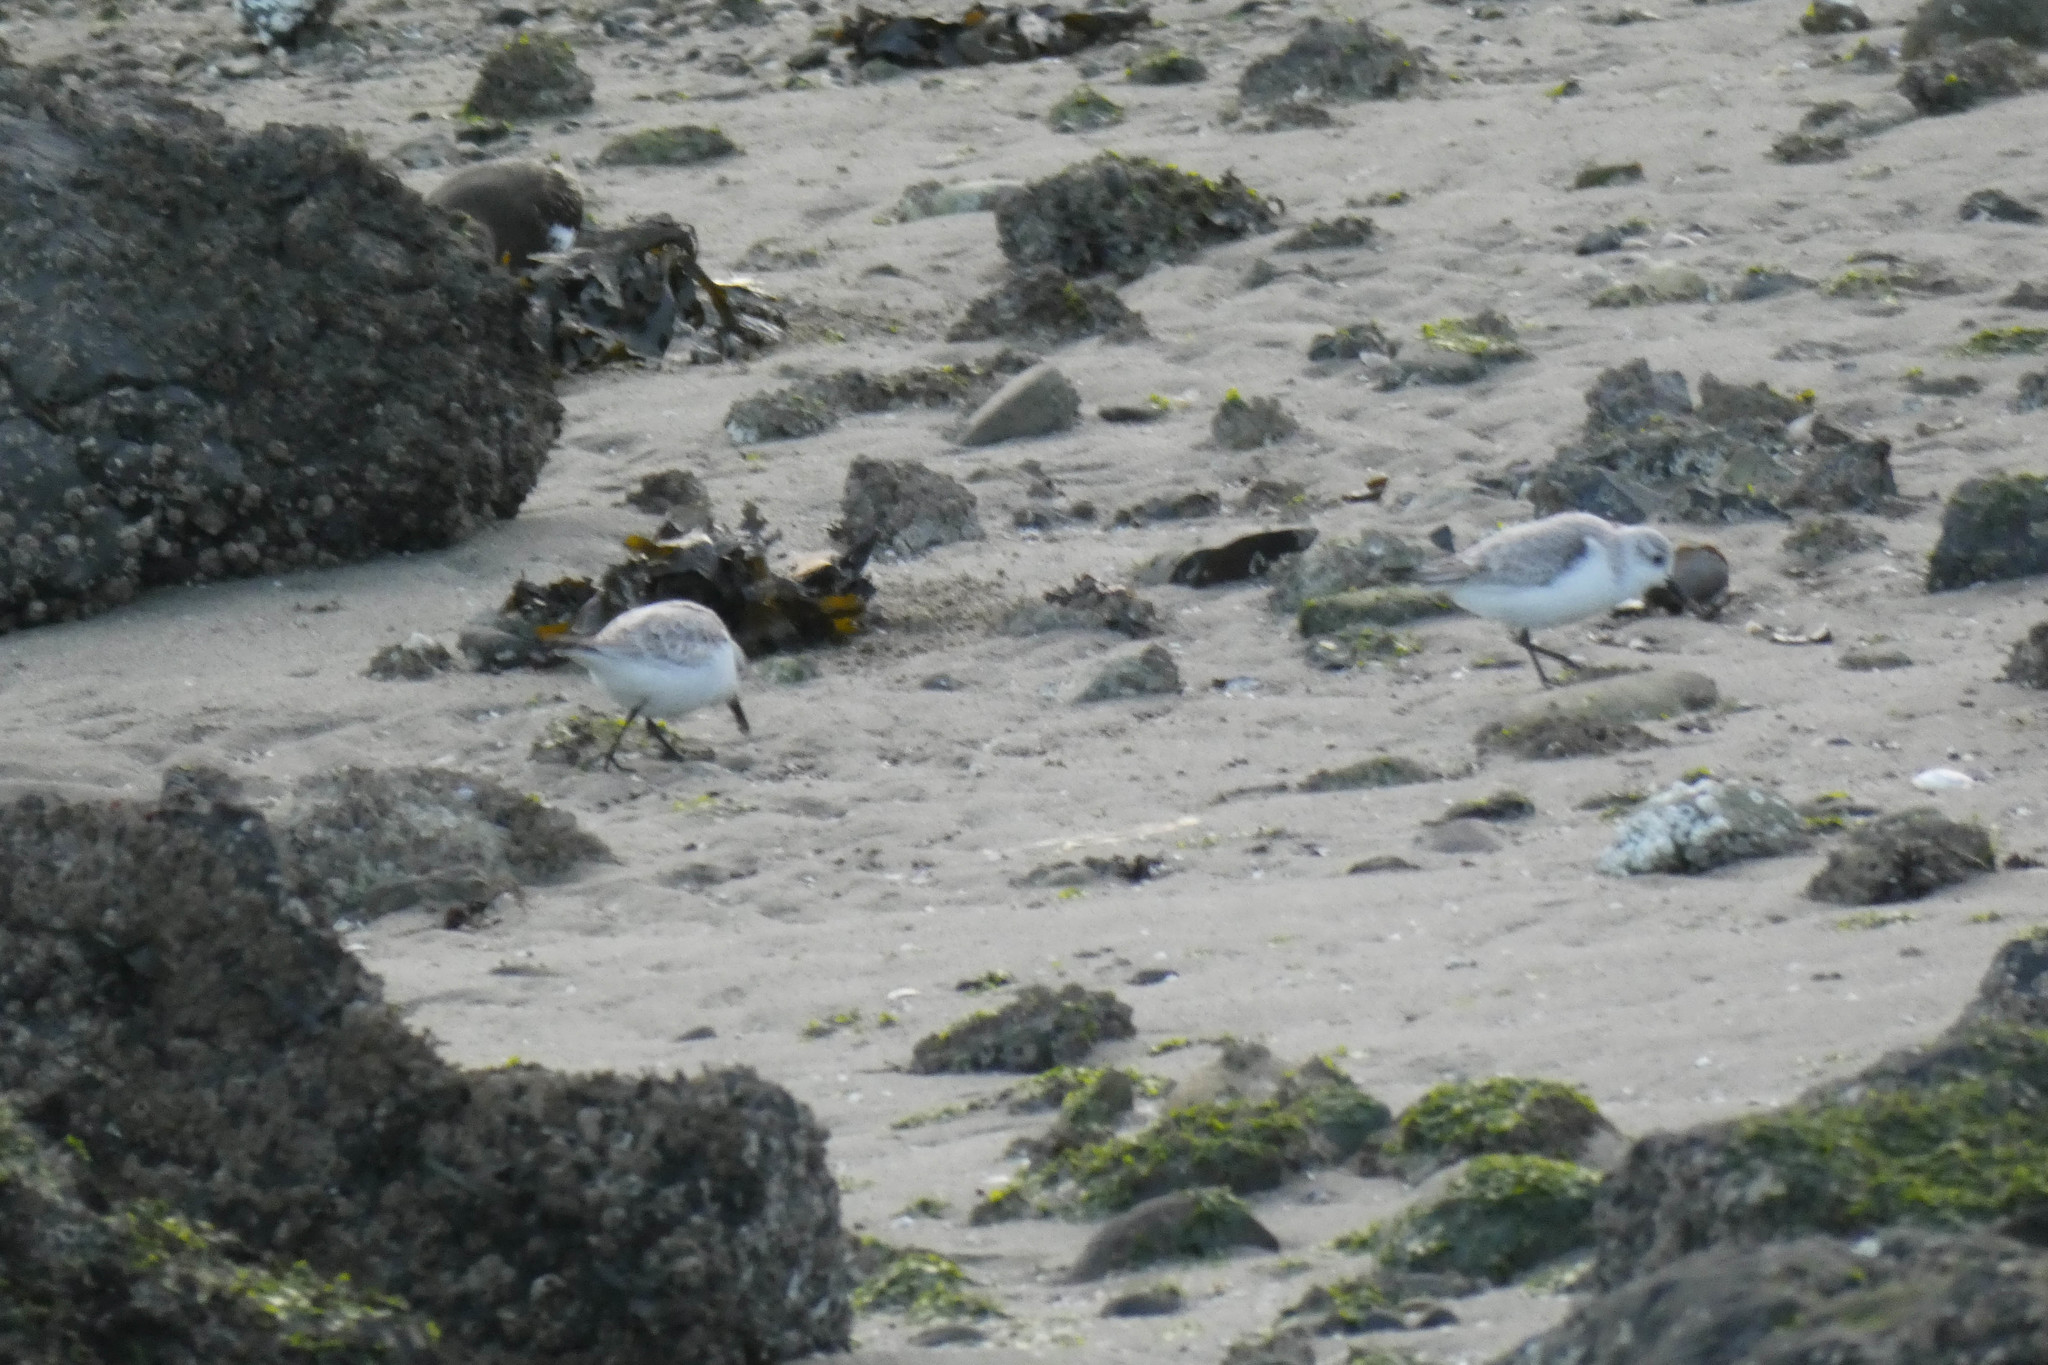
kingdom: Animalia
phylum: Chordata
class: Aves
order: Charadriiformes
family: Scolopacidae
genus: Calidris
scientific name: Calidris alba
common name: Sanderling
